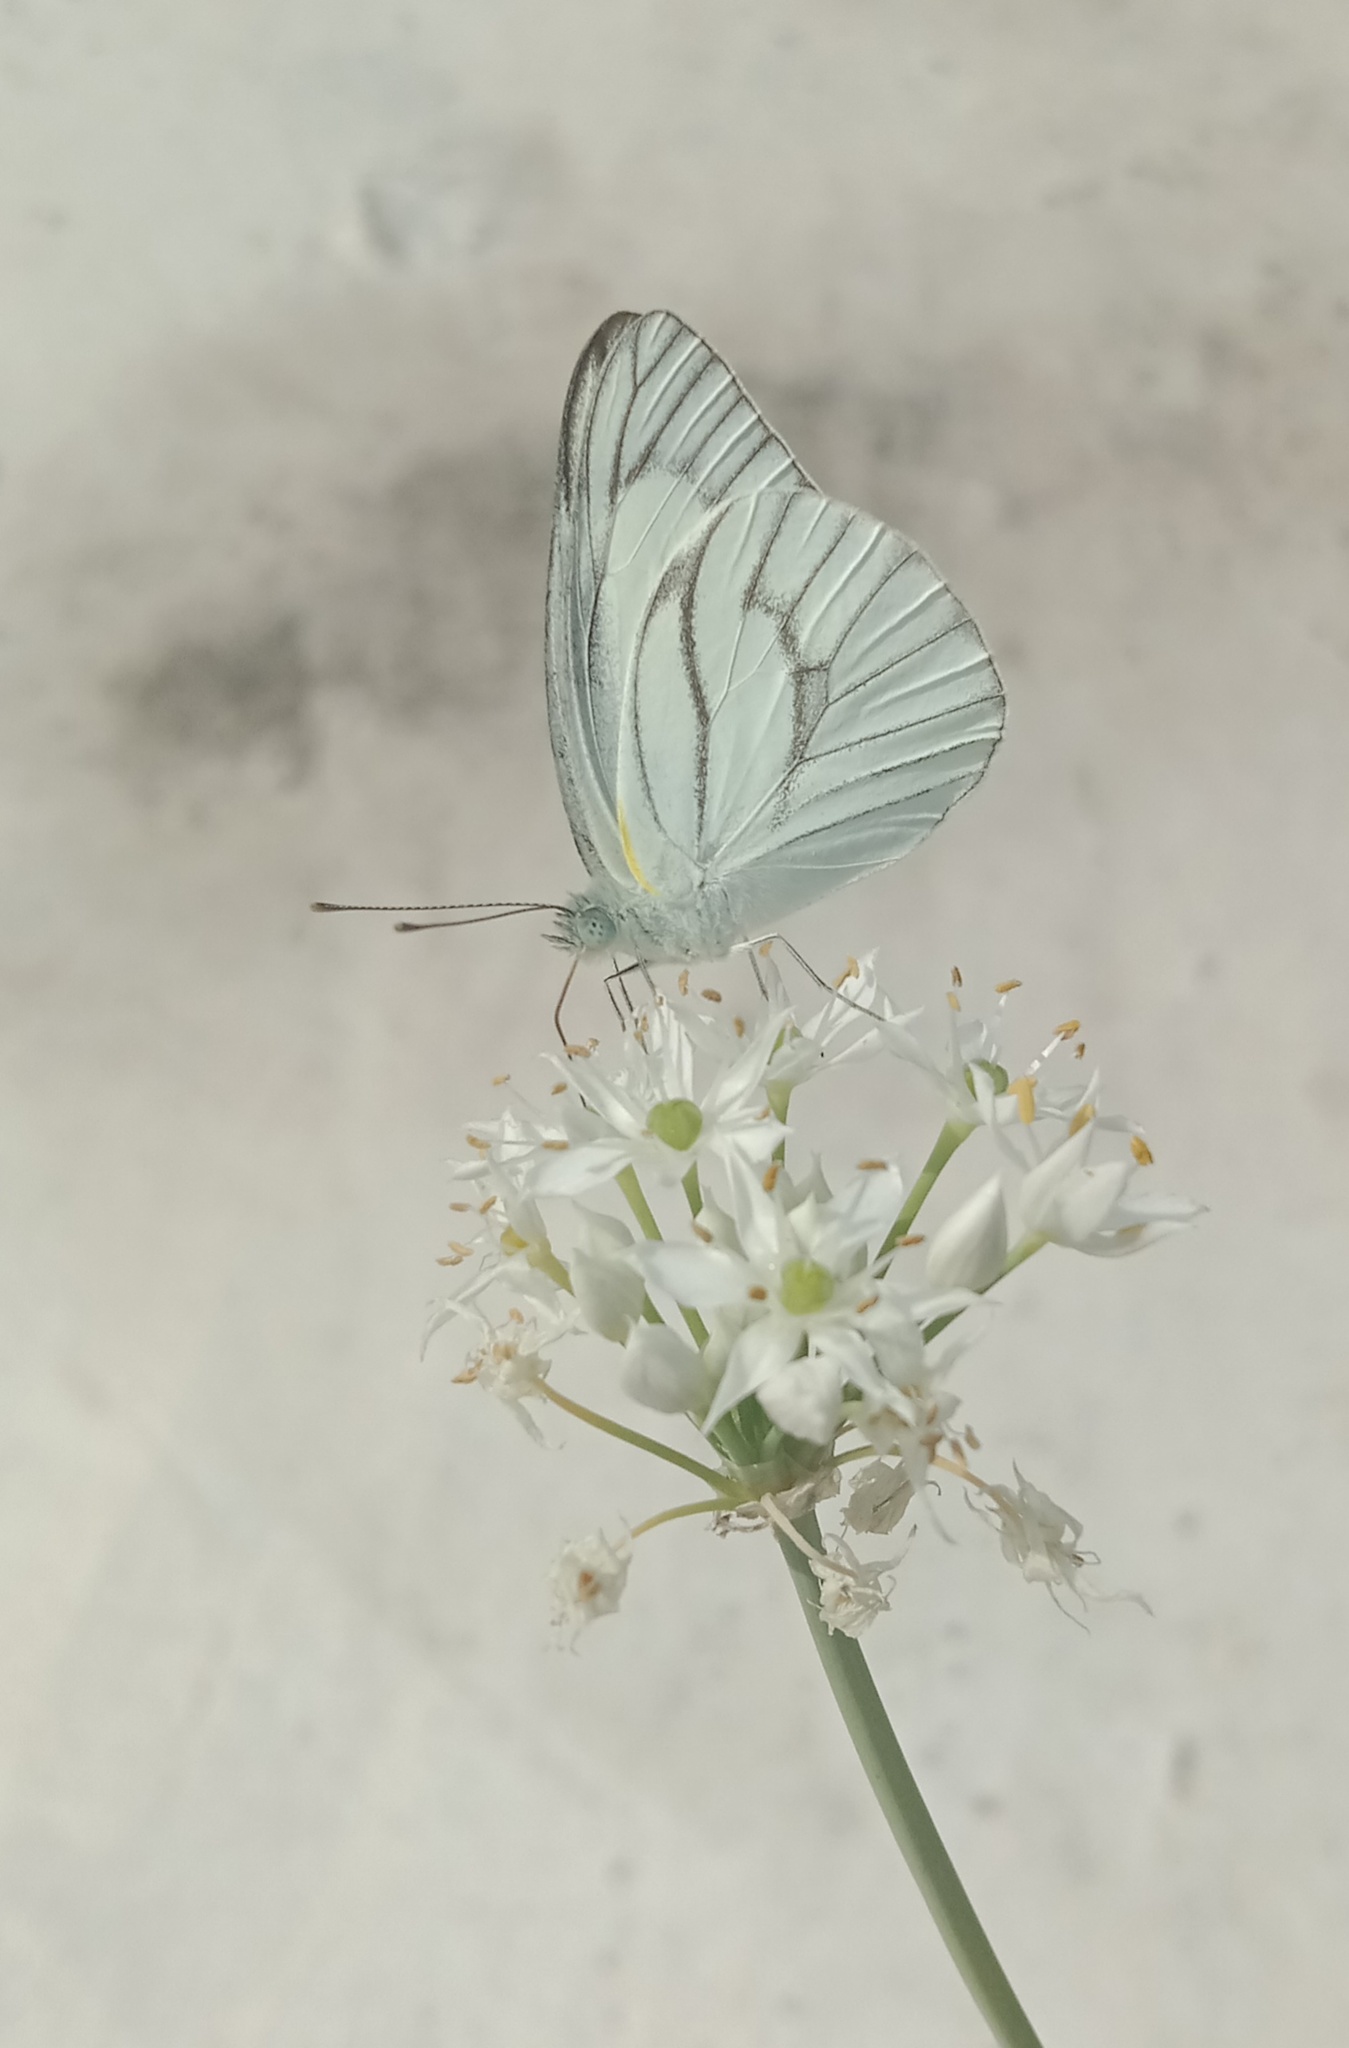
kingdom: Animalia
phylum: Arthropoda
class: Insecta
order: Lepidoptera
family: Pieridae
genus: Appias
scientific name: Appias olferna
